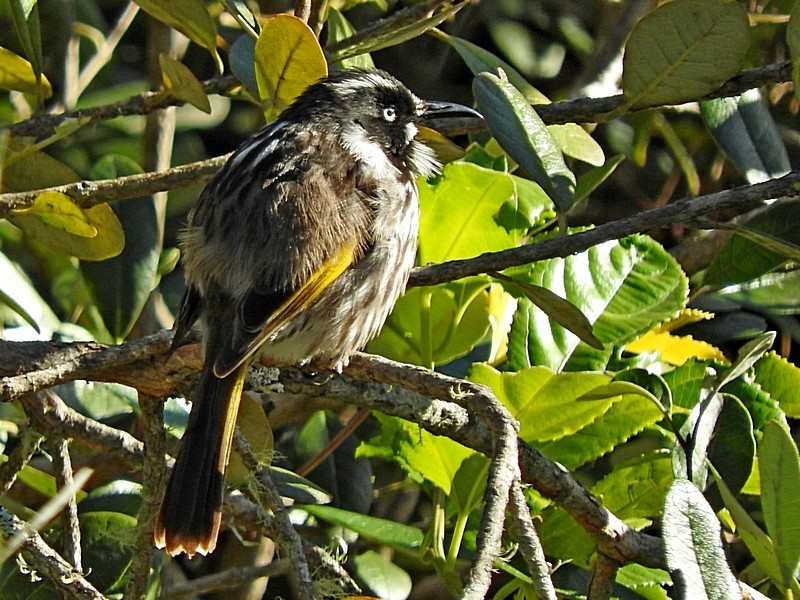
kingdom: Animalia
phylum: Chordata
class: Aves
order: Passeriformes
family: Meliphagidae
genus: Phylidonyris
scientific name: Phylidonyris novaehollandiae
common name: New holland honeyeater
